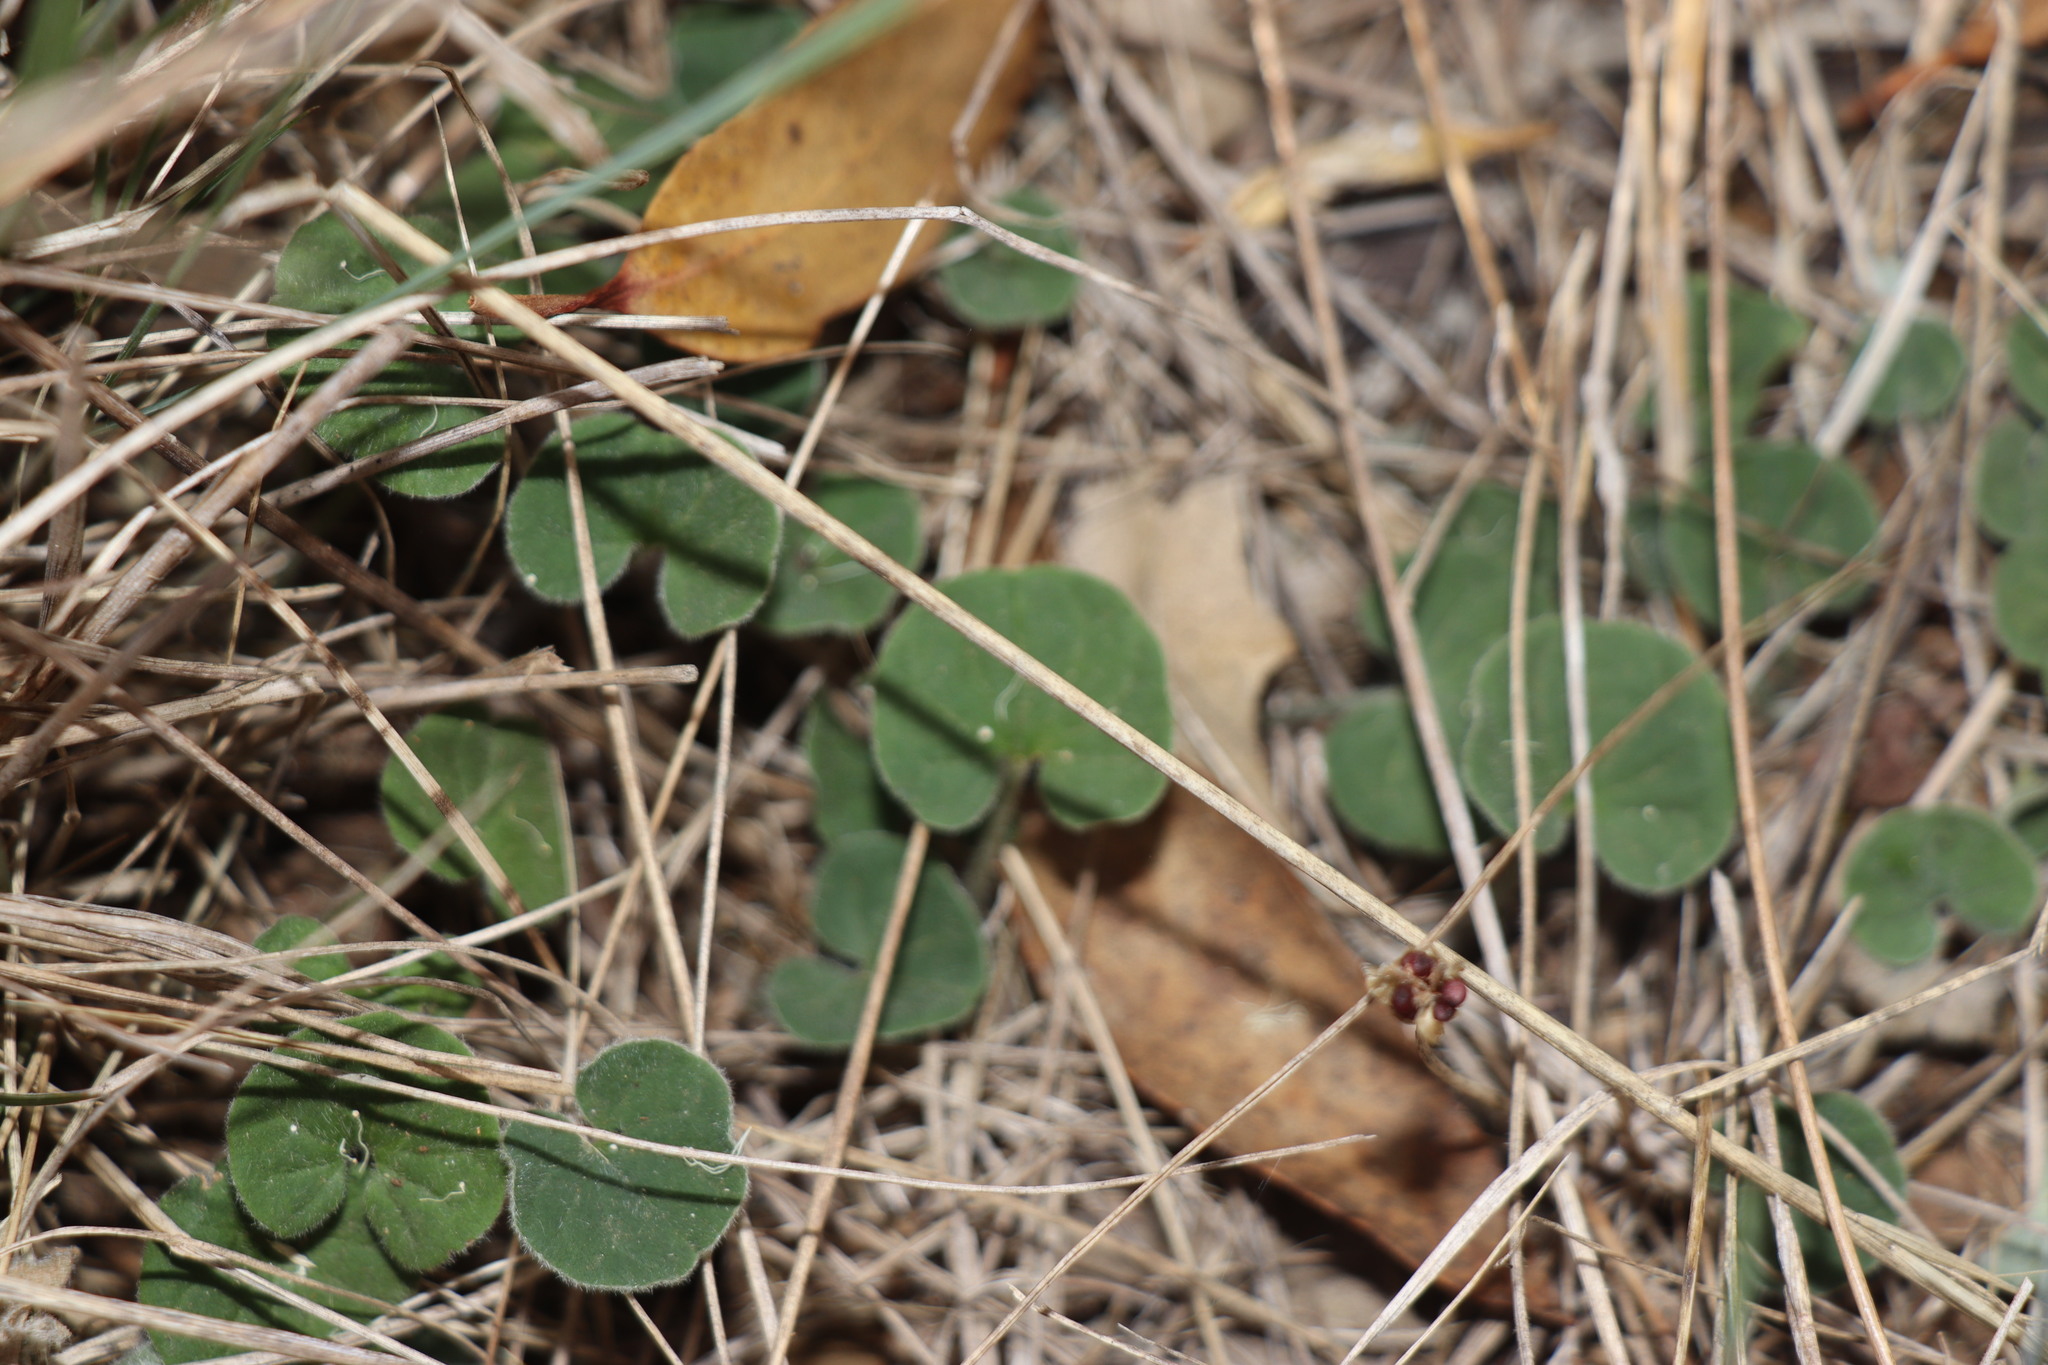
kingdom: Plantae
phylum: Tracheophyta
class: Magnoliopsida
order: Solanales
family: Convolvulaceae
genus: Dichondra
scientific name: Dichondra repens
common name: Kidneyweed
